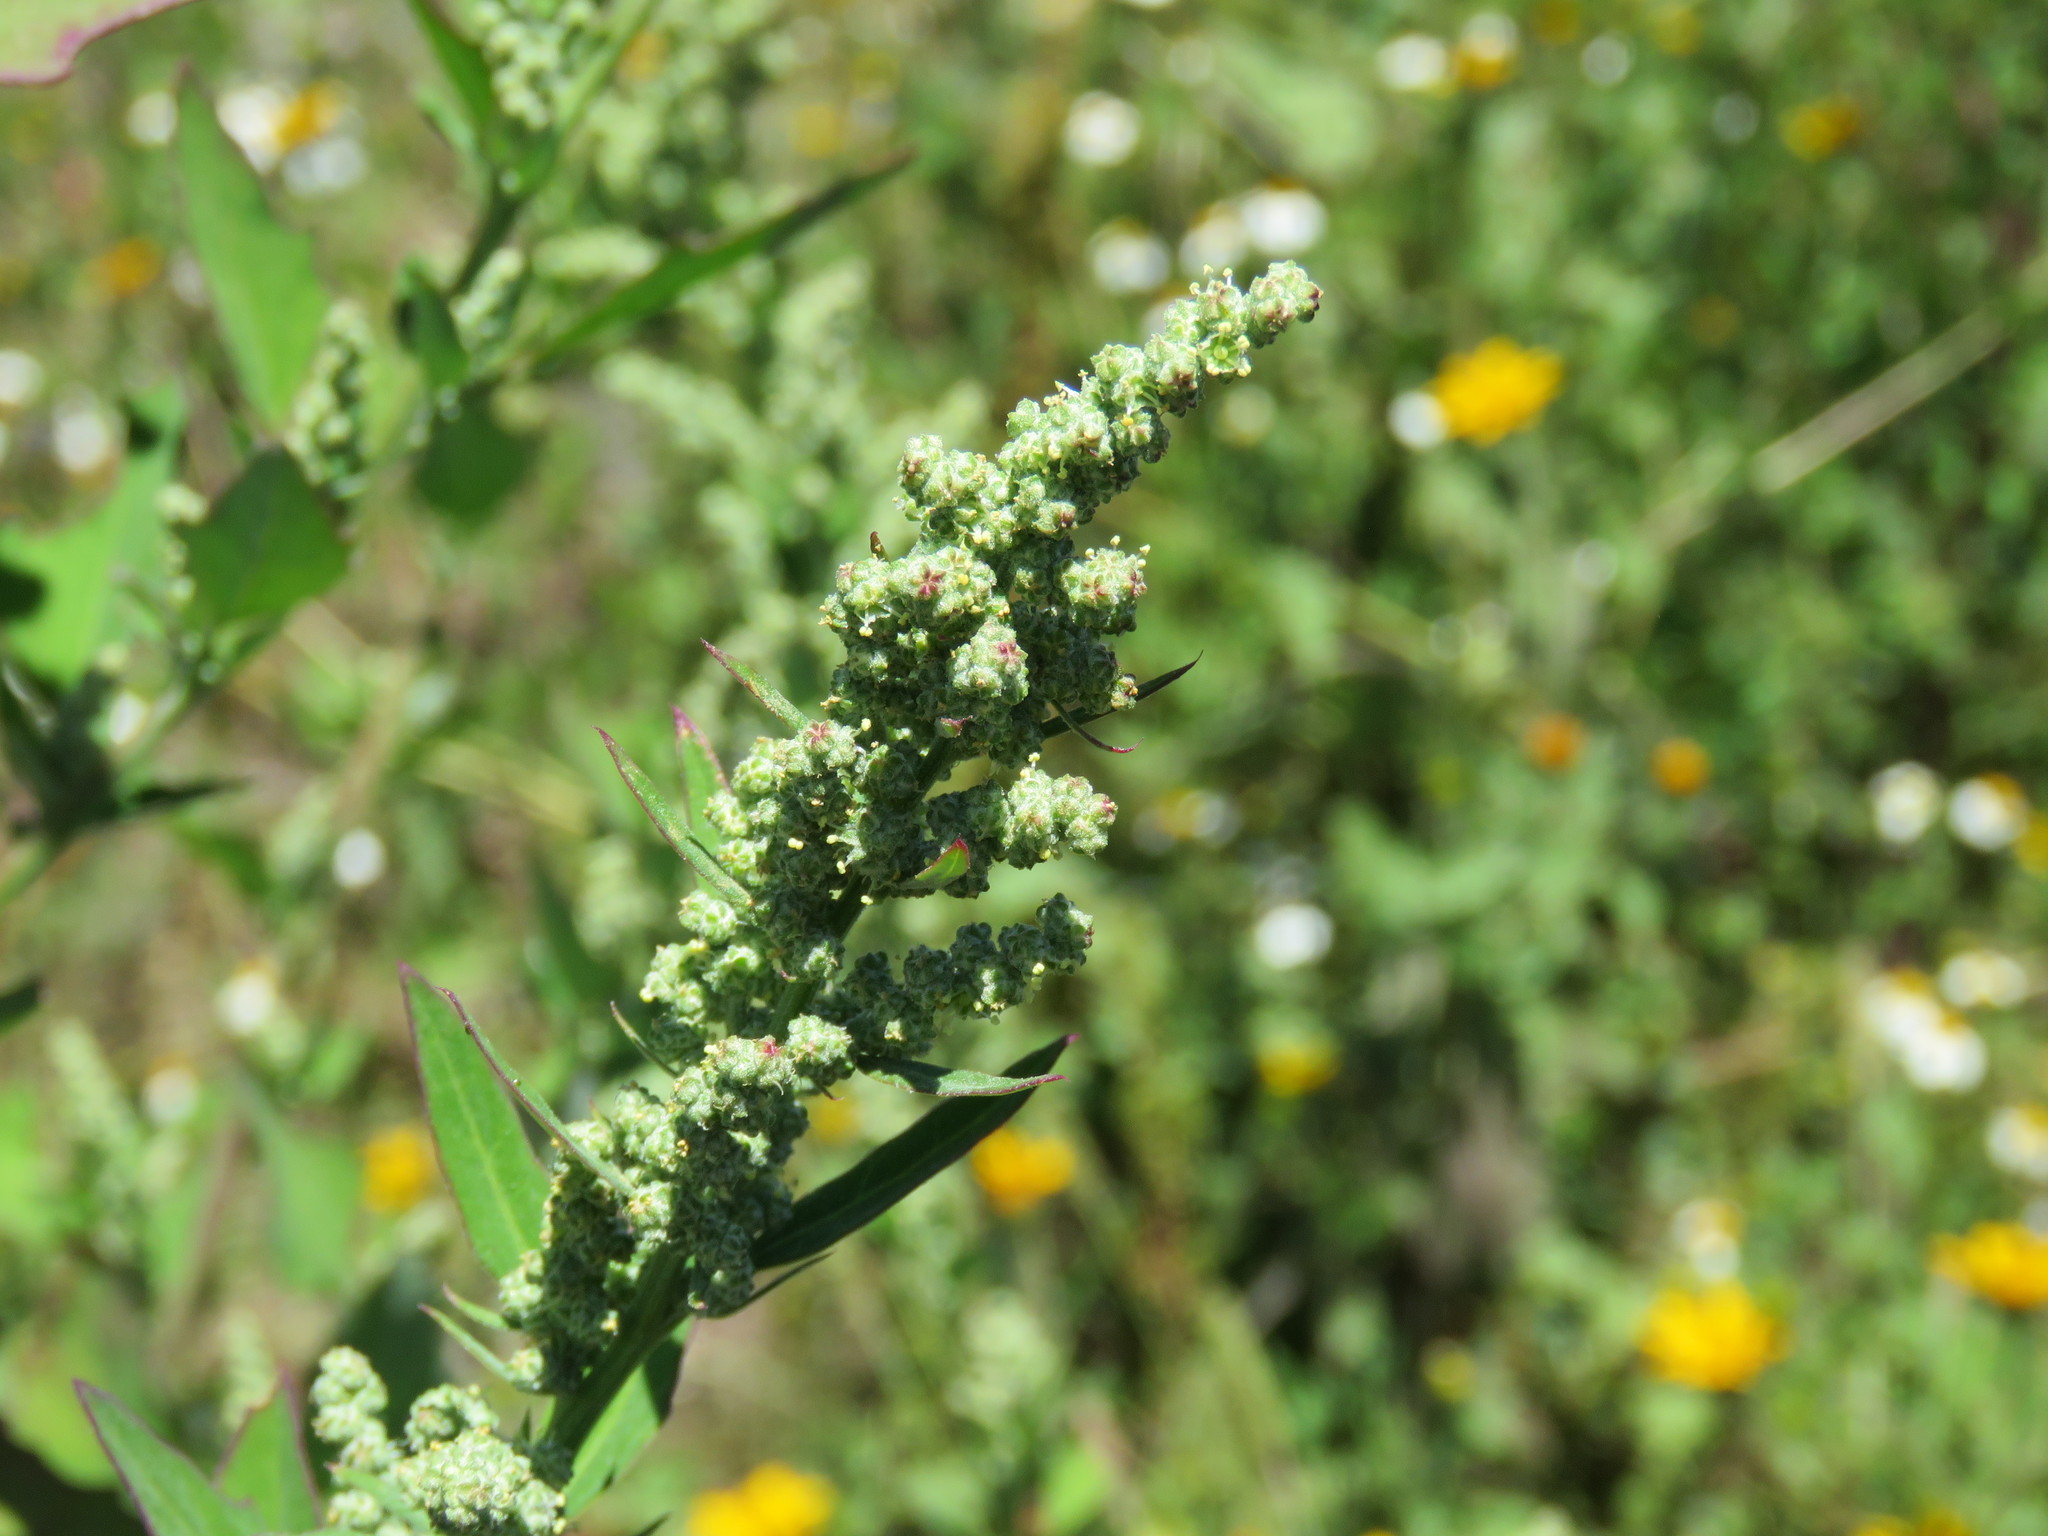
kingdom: Plantae
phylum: Tracheophyta
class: Magnoliopsida
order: Caryophyllales
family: Amaranthaceae
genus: Chenopodium
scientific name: Chenopodium album
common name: Fat-hen
